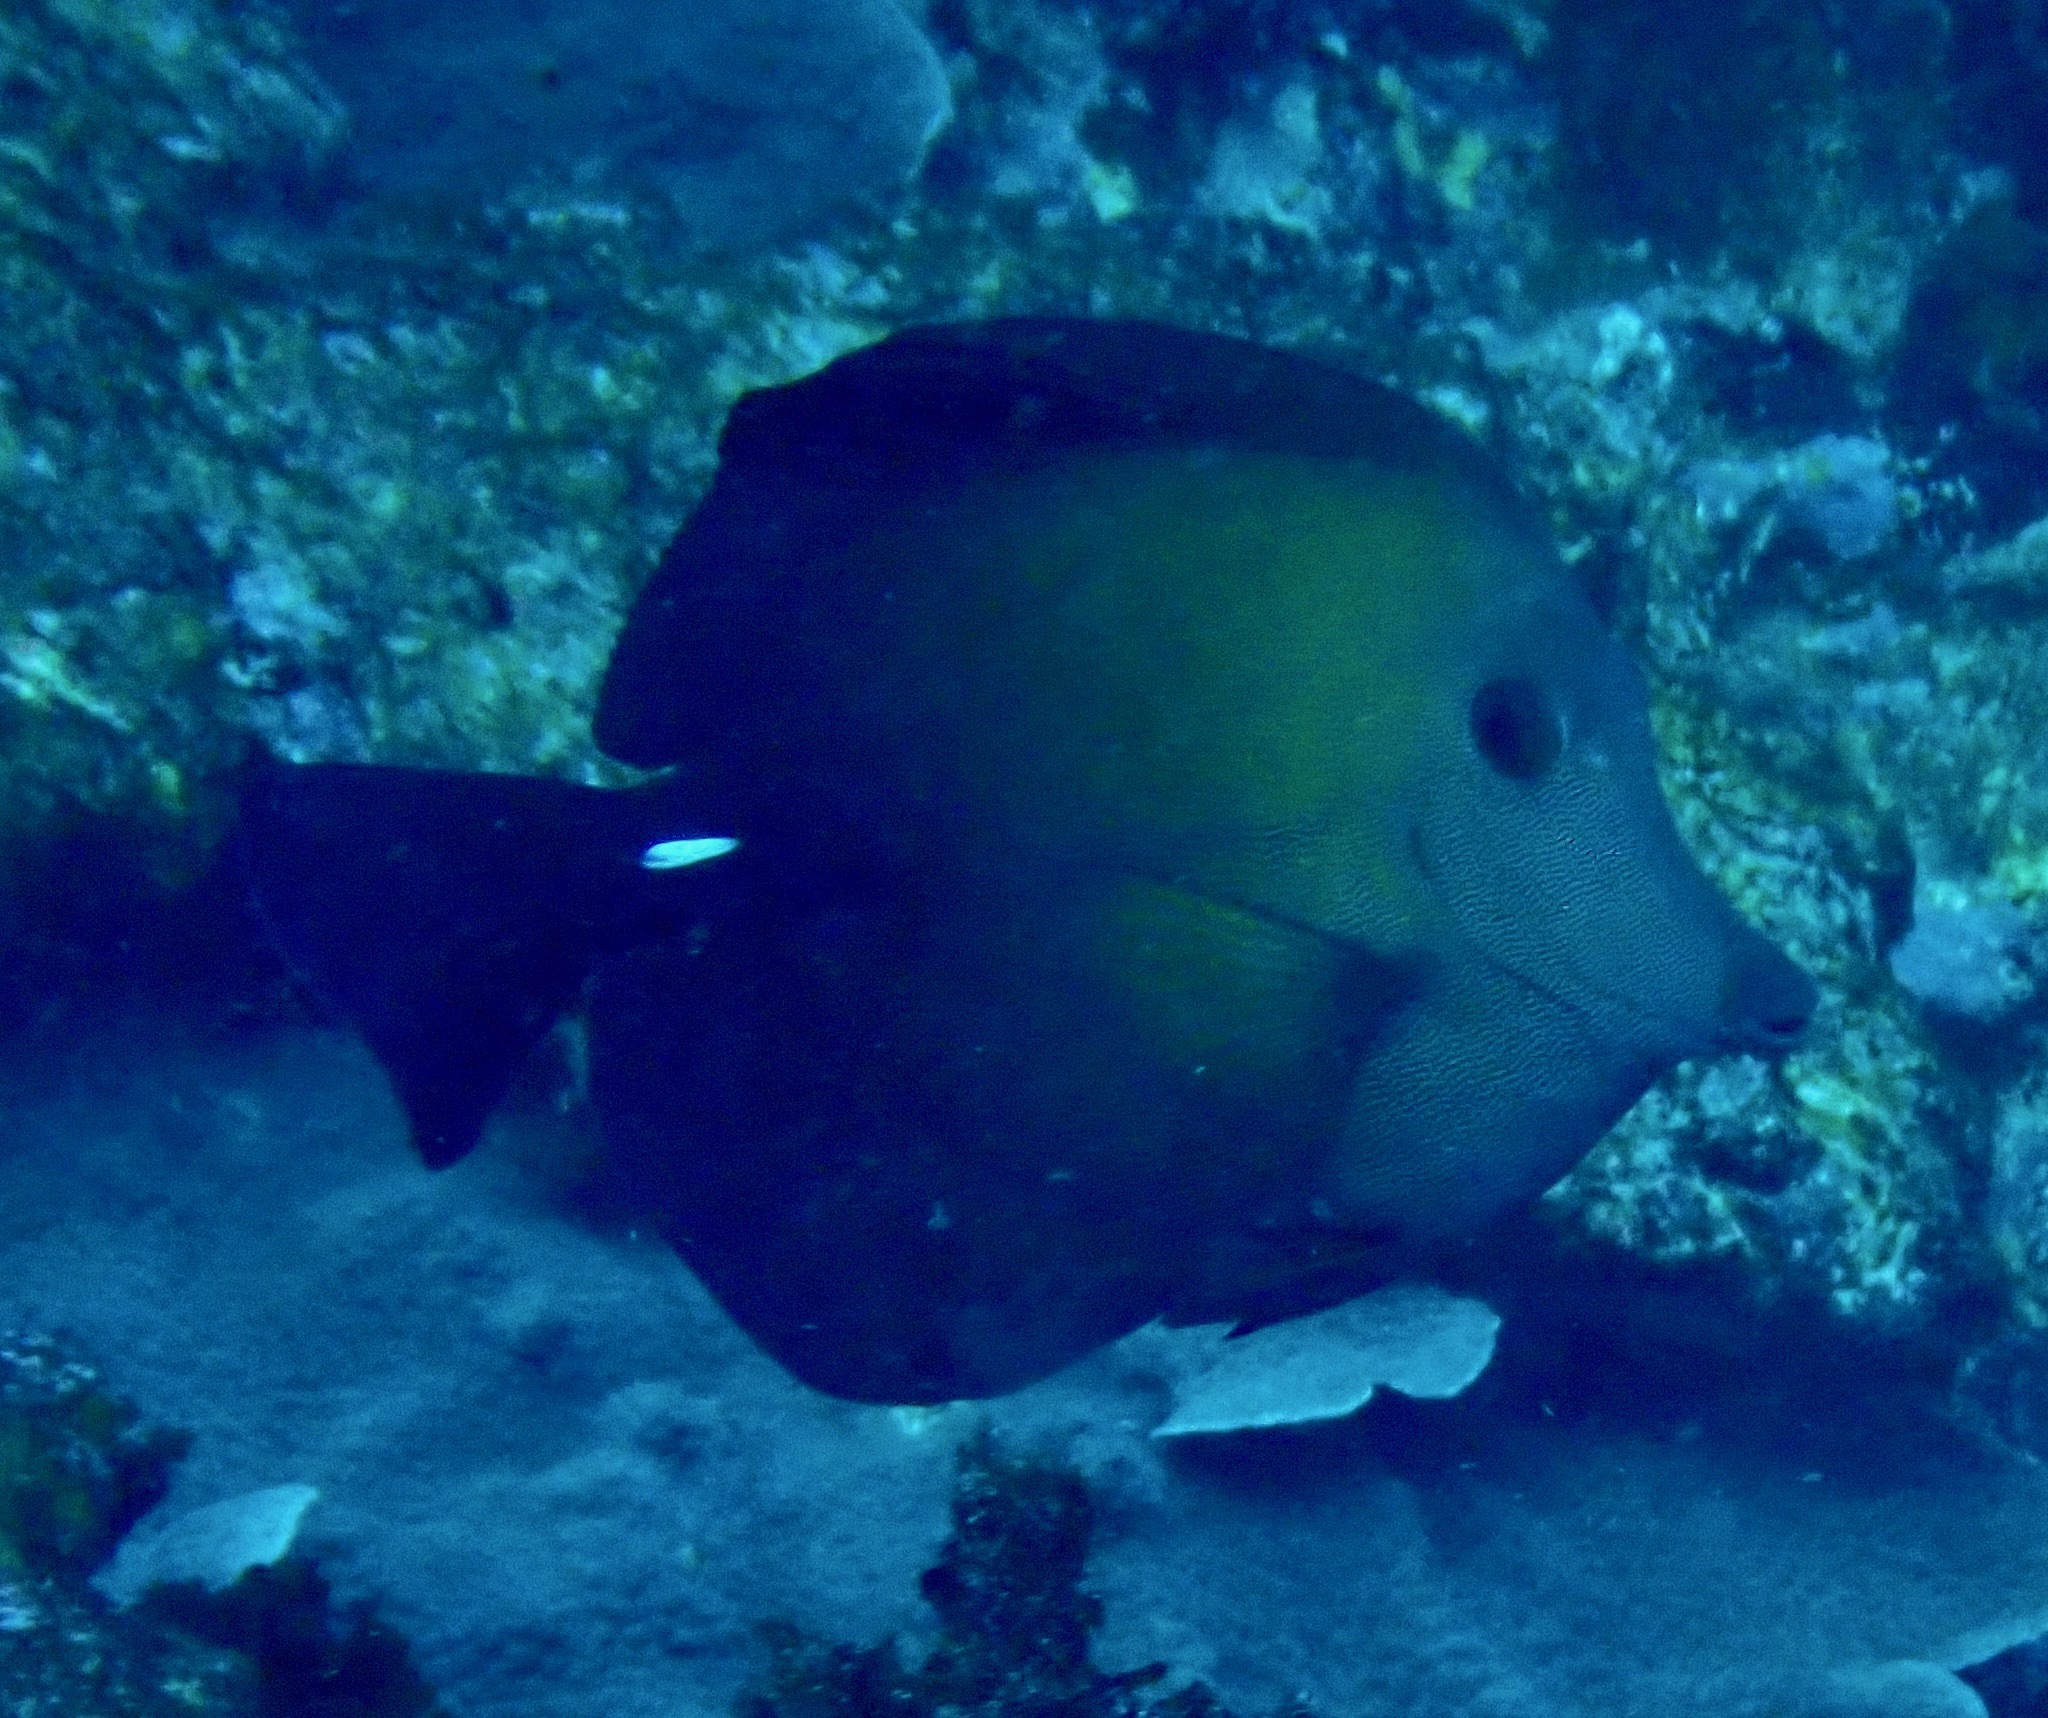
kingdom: Animalia
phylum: Chordata
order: Perciformes
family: Acanthuridae
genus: Zebrasoma
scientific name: Zebrasoma scopas
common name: Twotone tang
